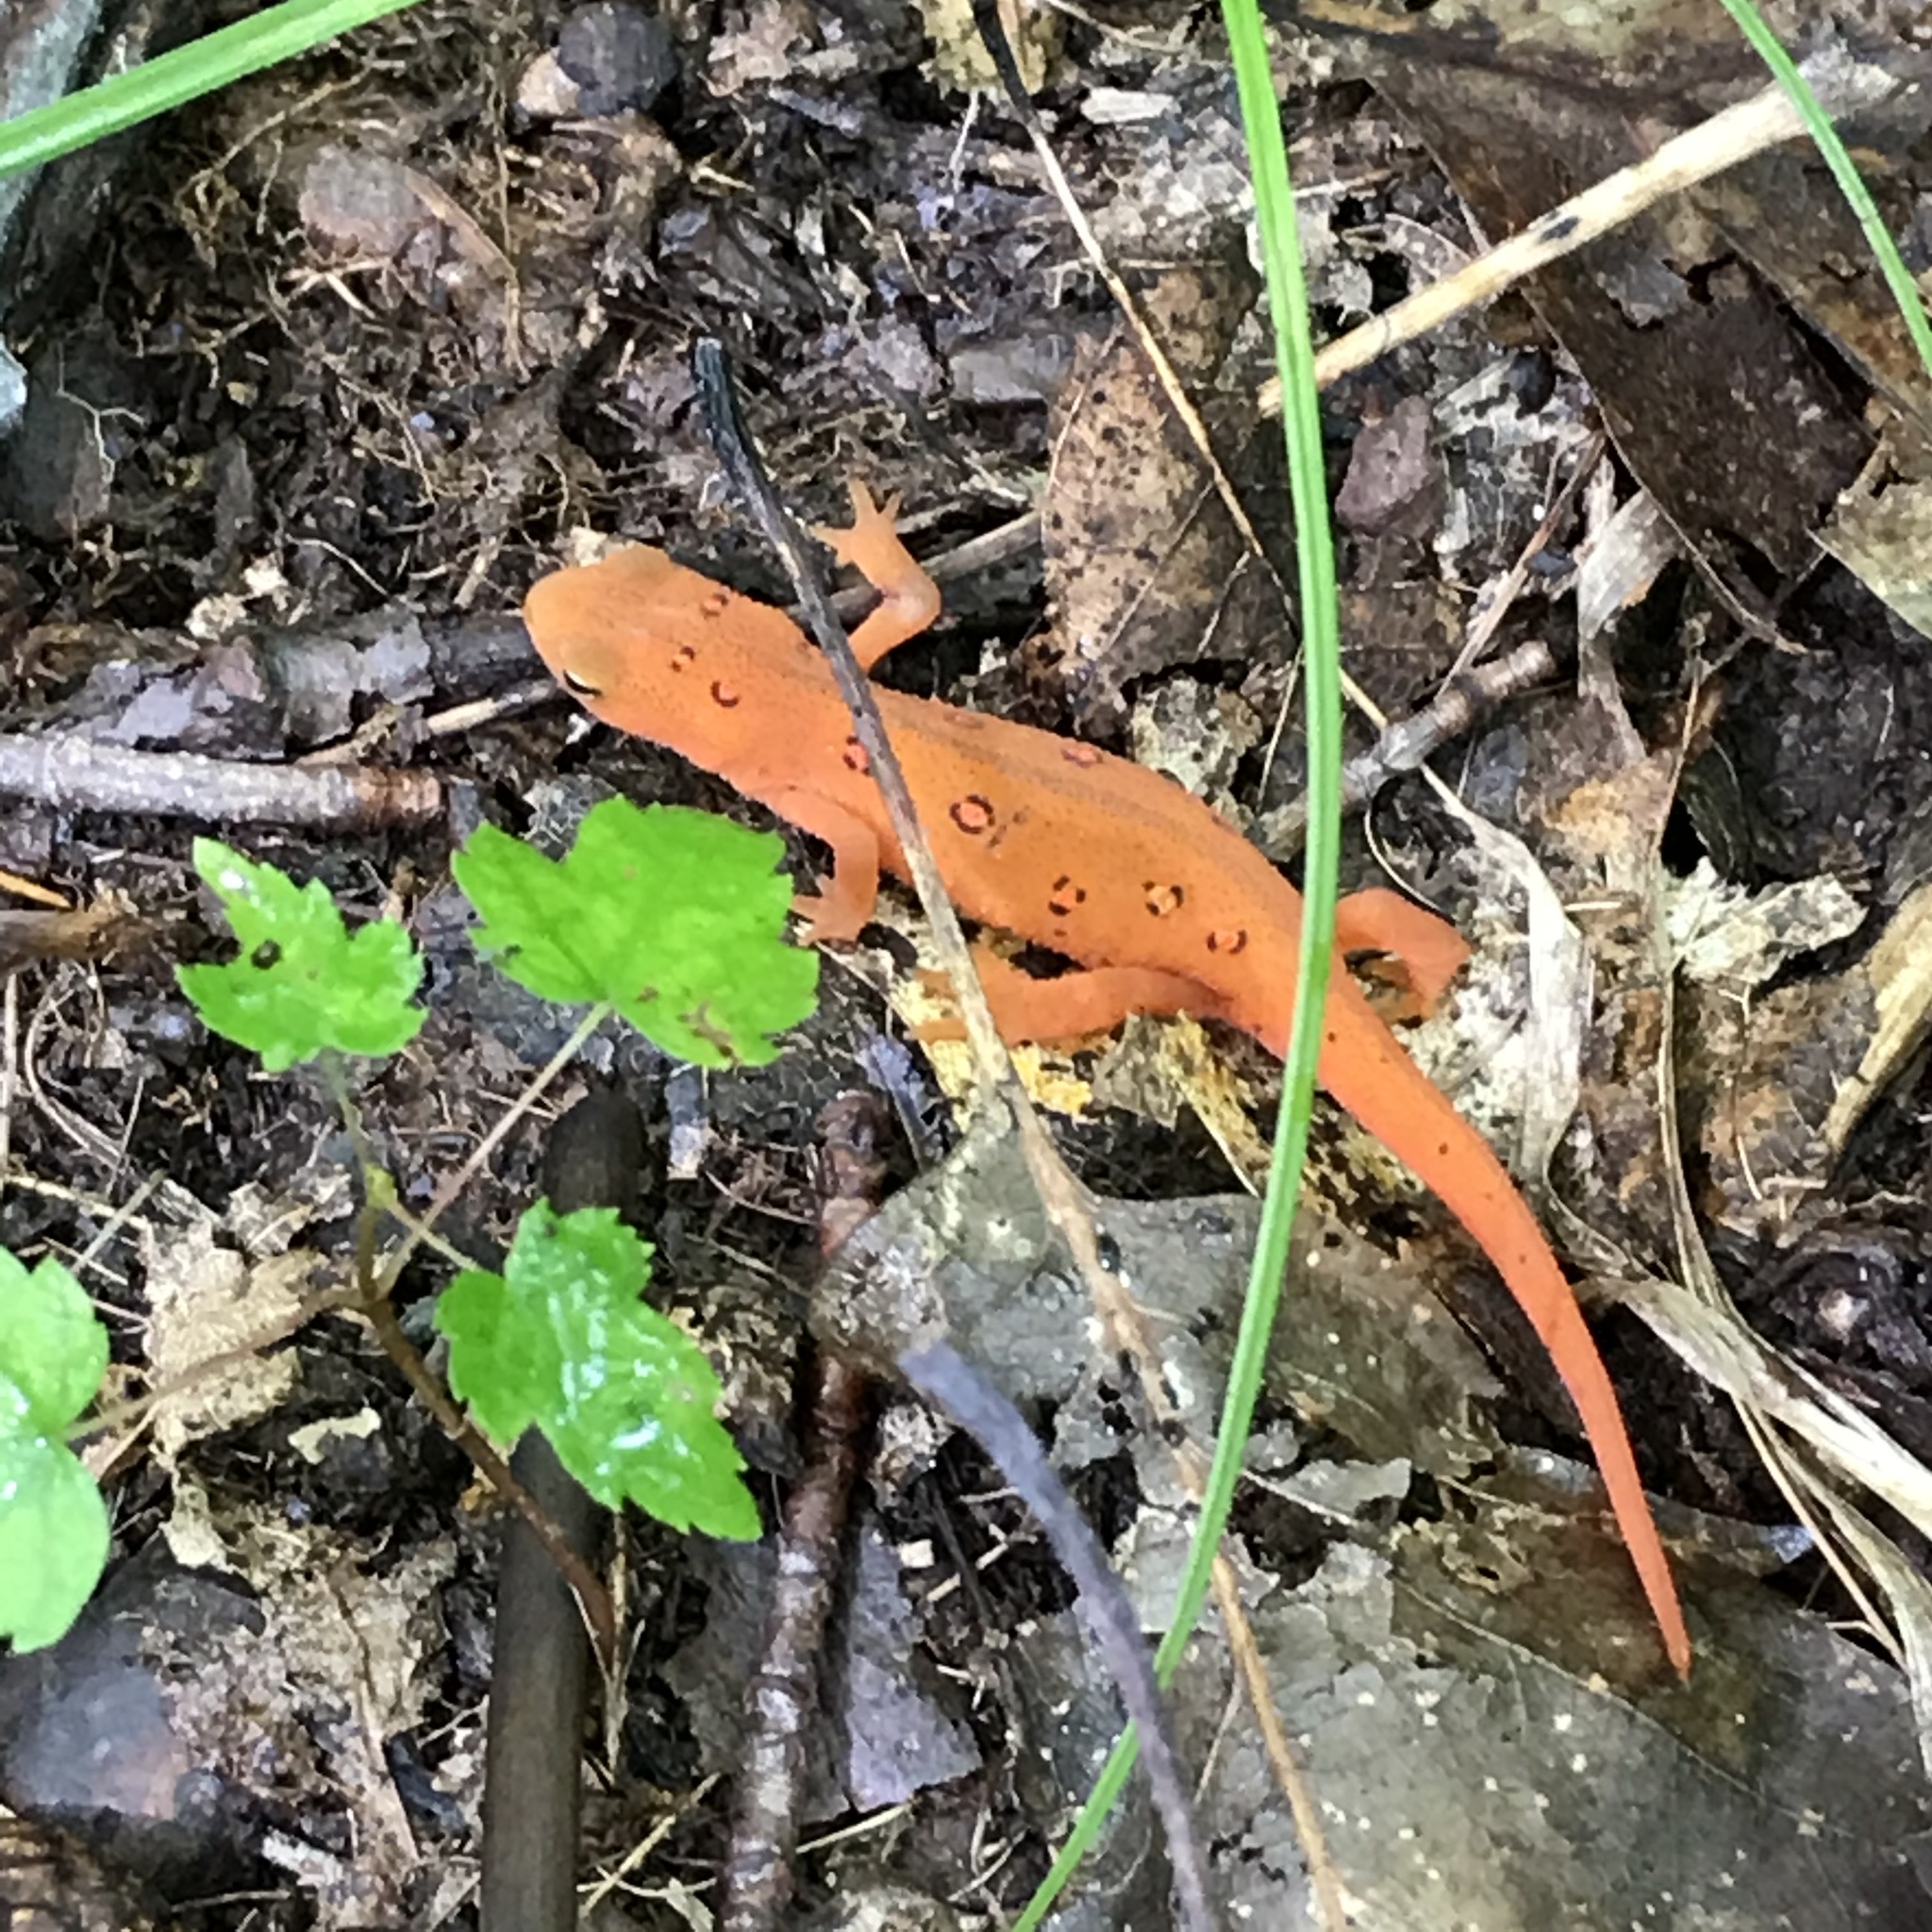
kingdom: Animalia
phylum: Chordata
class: Amphibia
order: Caudata
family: Salamandridae
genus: Notophthalmus
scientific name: Notophthalmus viridescens
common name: Eastern newt
